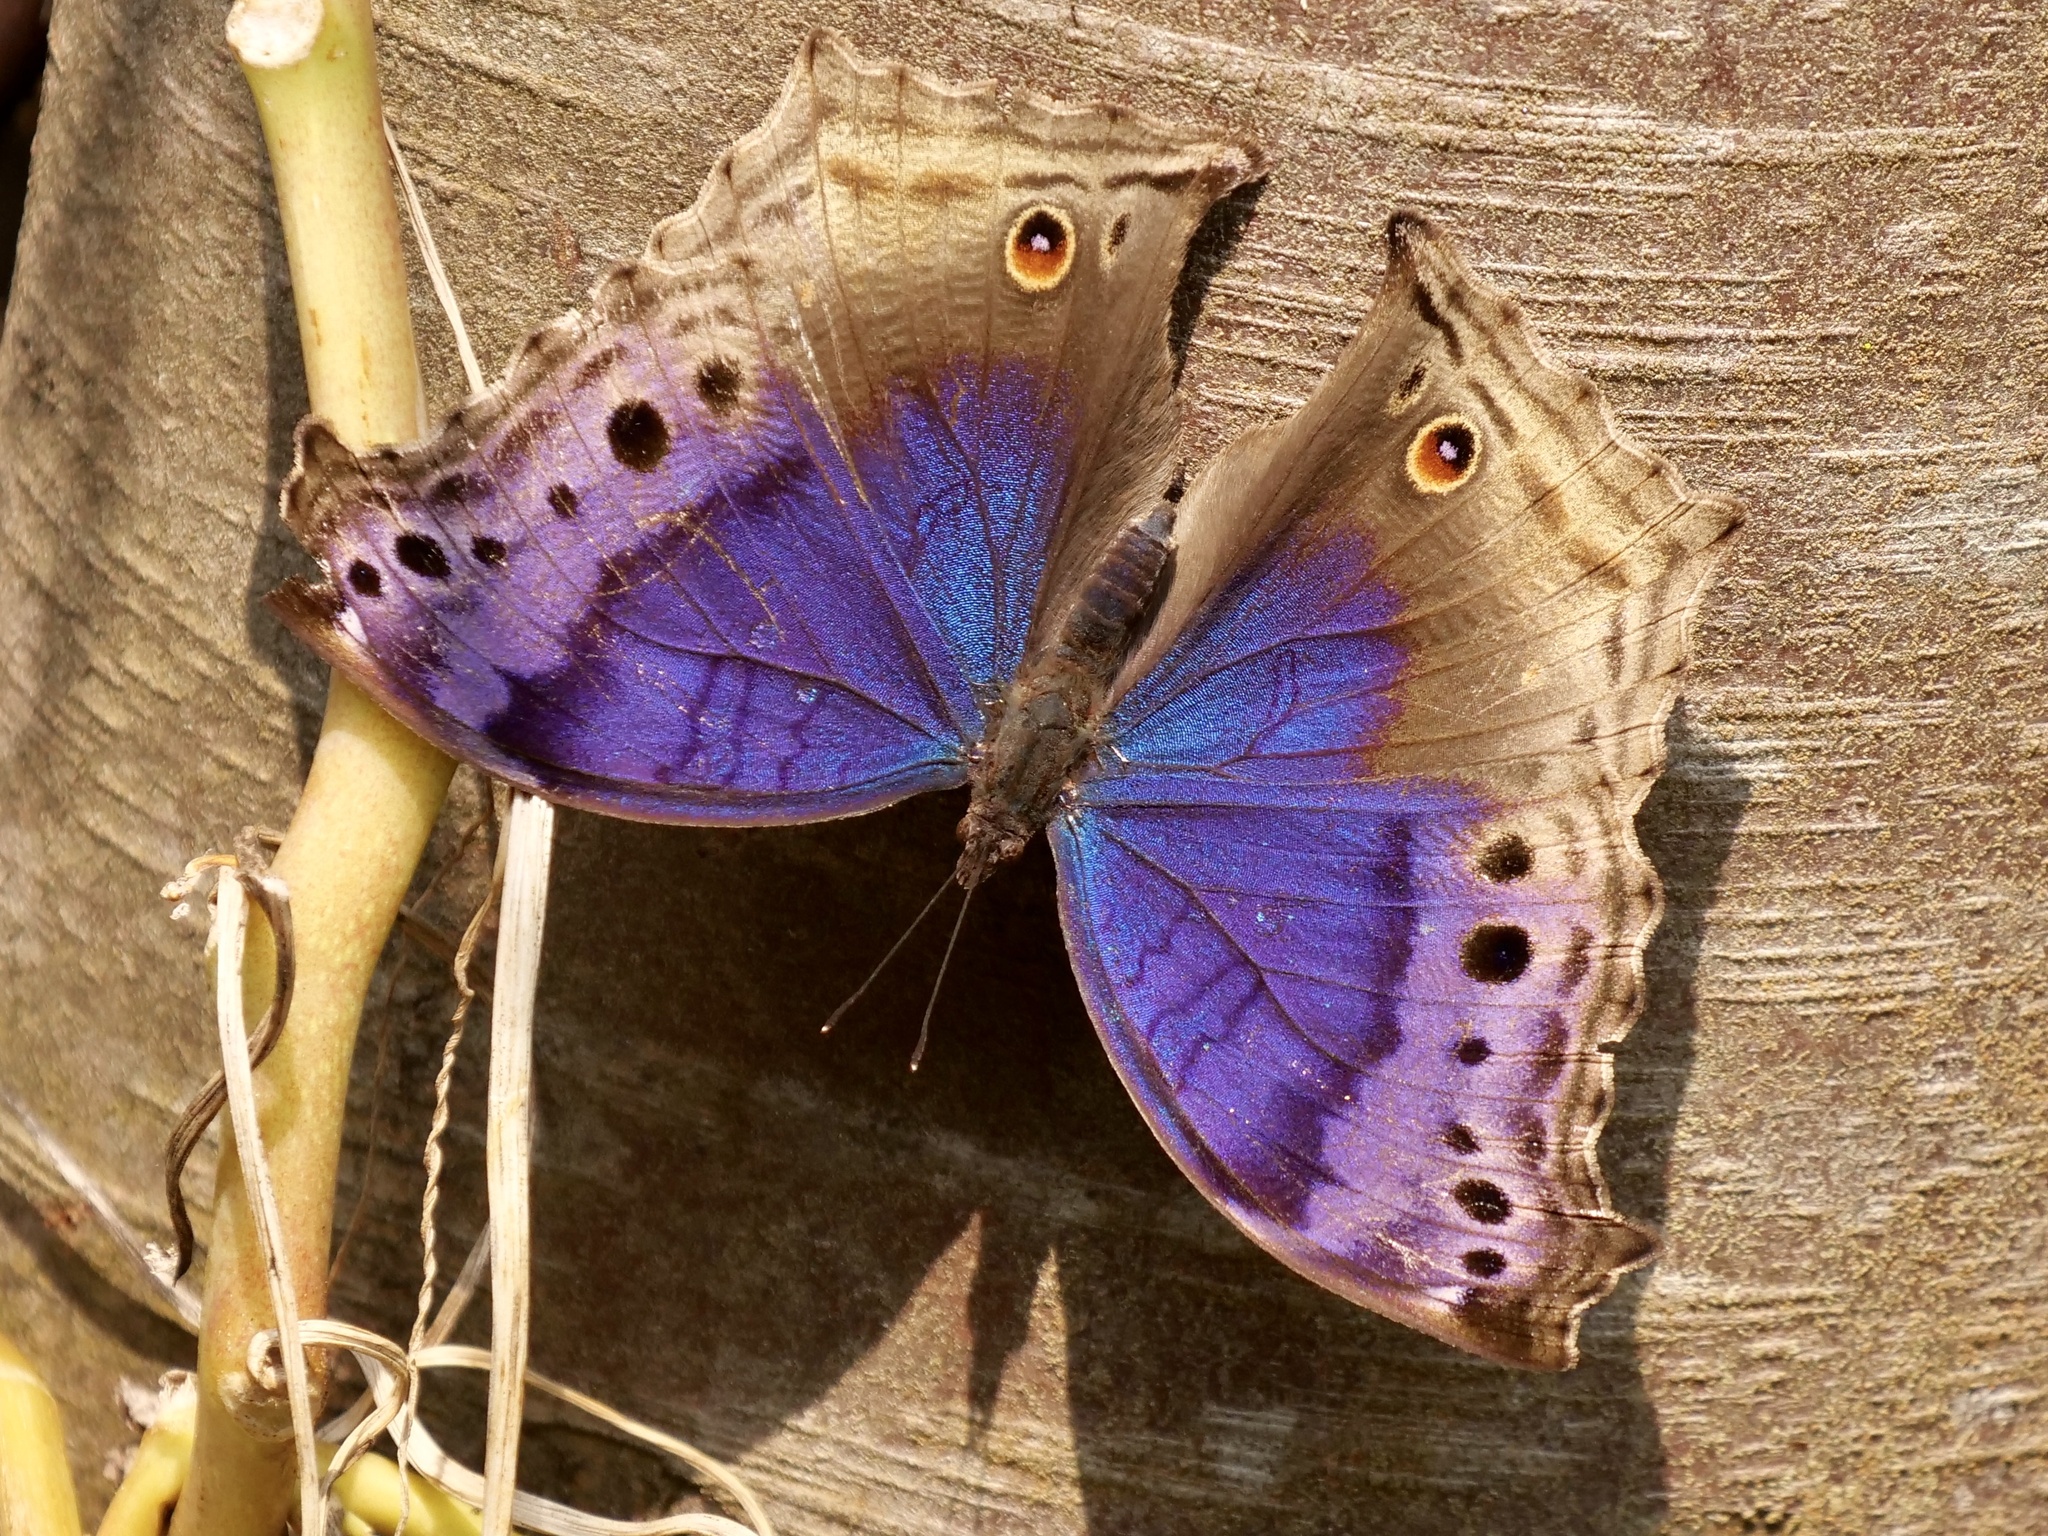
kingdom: Animalia
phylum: Arthropoda
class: Insecta
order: Lepidoptera
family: Nymphalidae
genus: Junonia
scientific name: Junonia
